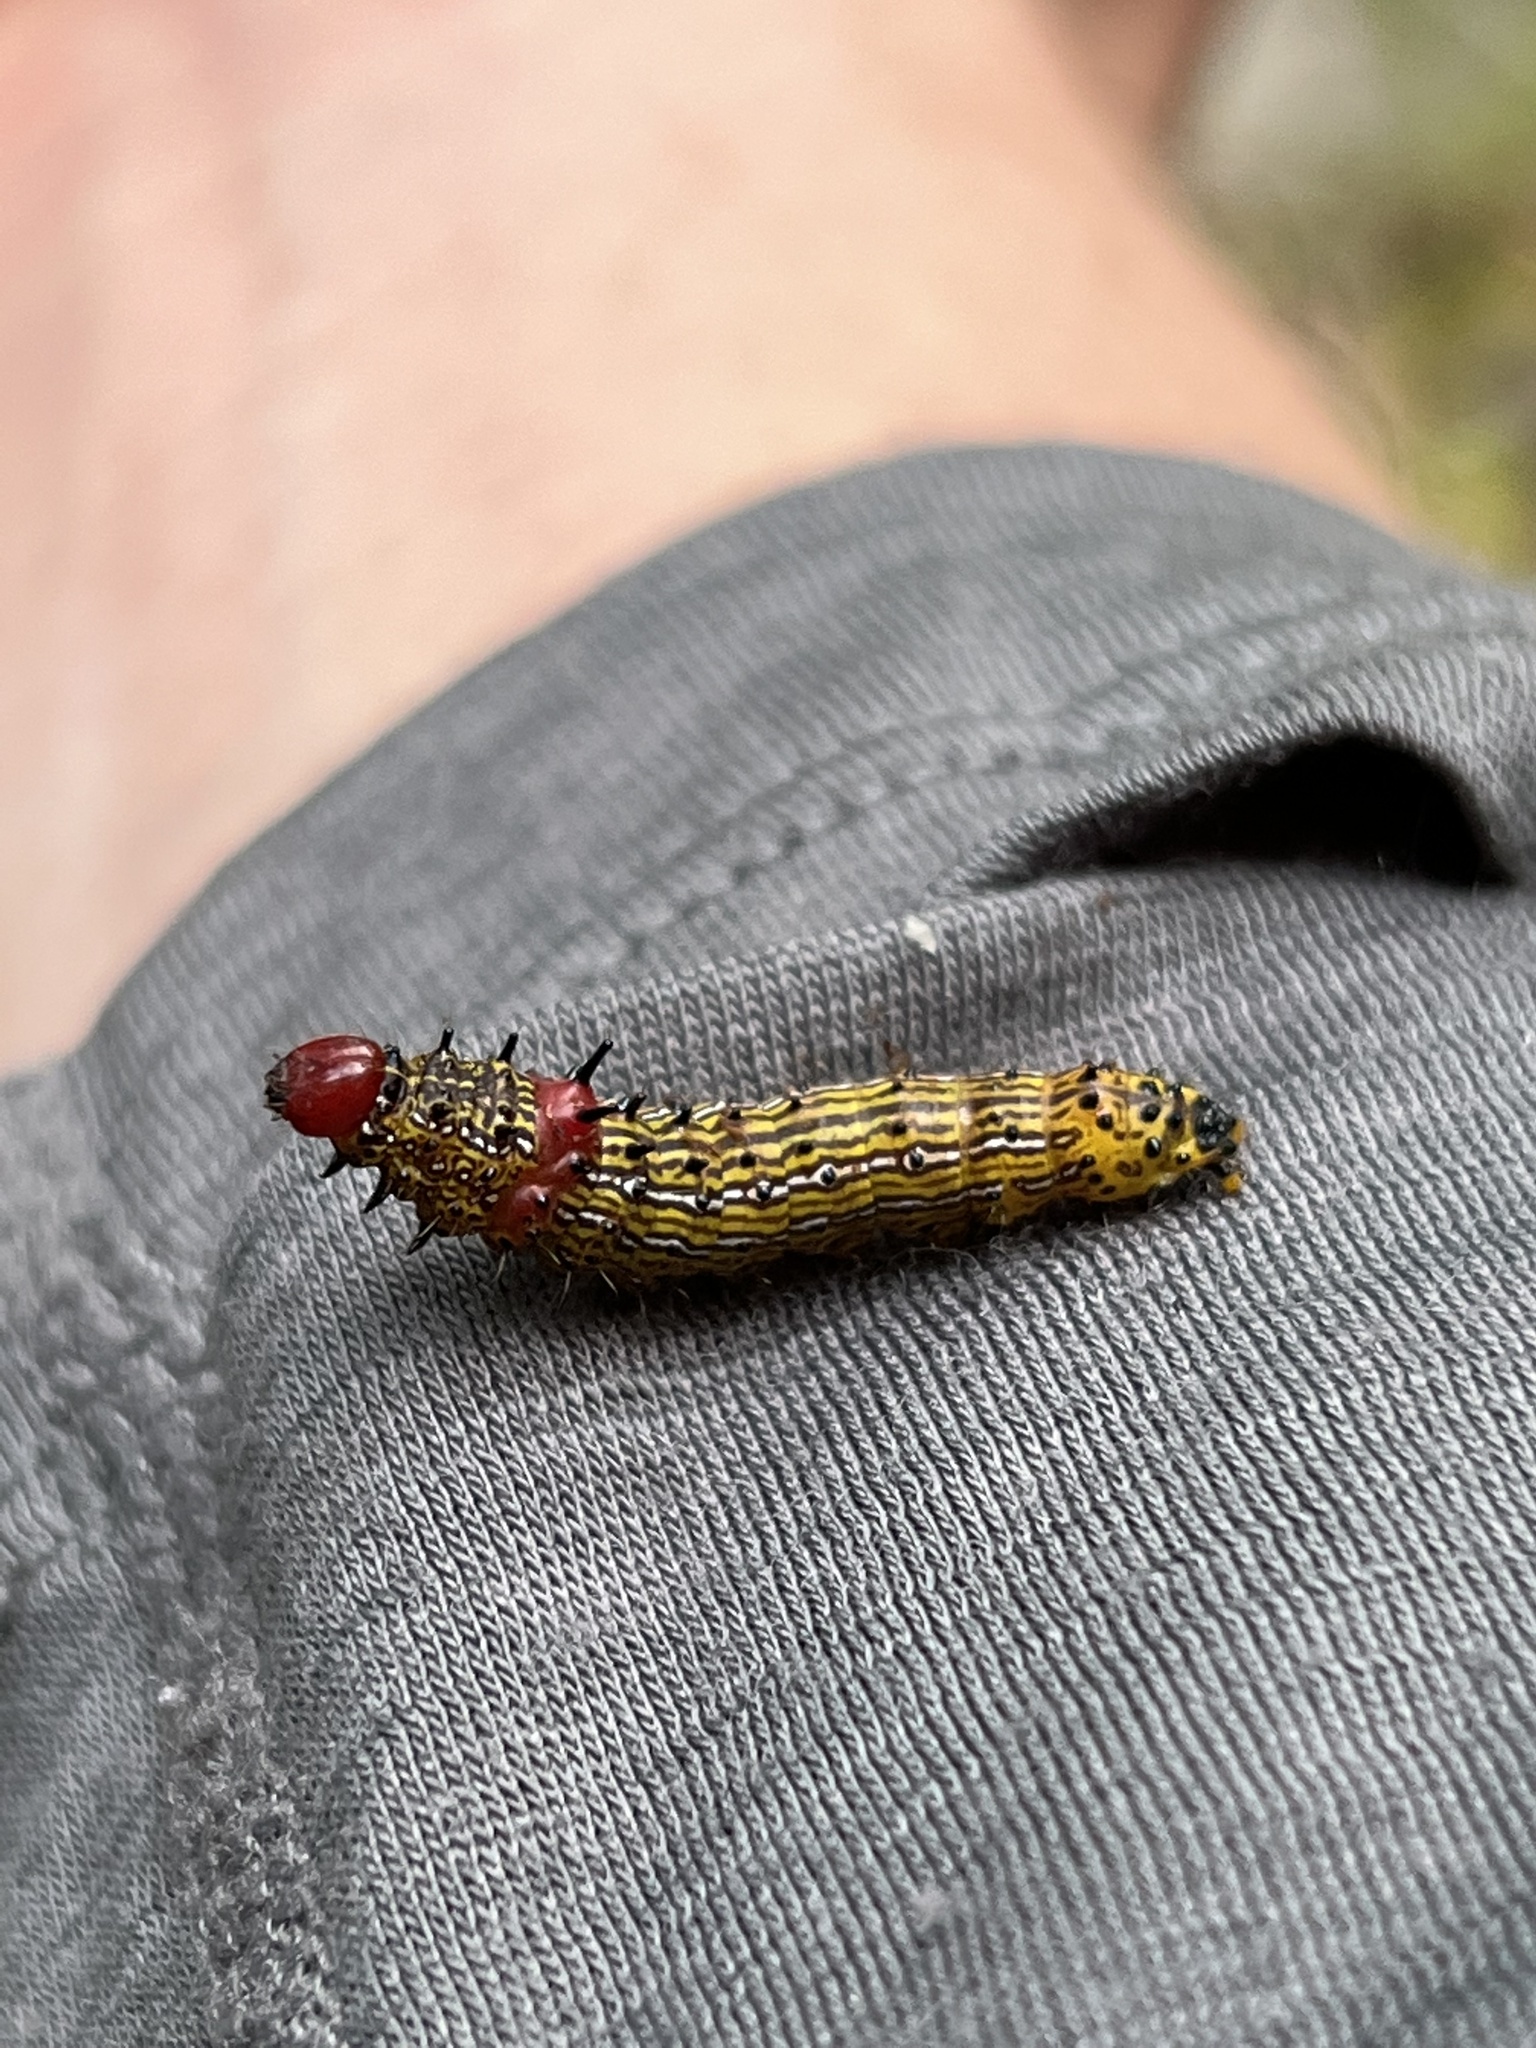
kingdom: Animalia
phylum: Arthropoda
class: Insecta
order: Lepidoptera
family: Notodontidae
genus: Schizura
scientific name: Schizura
